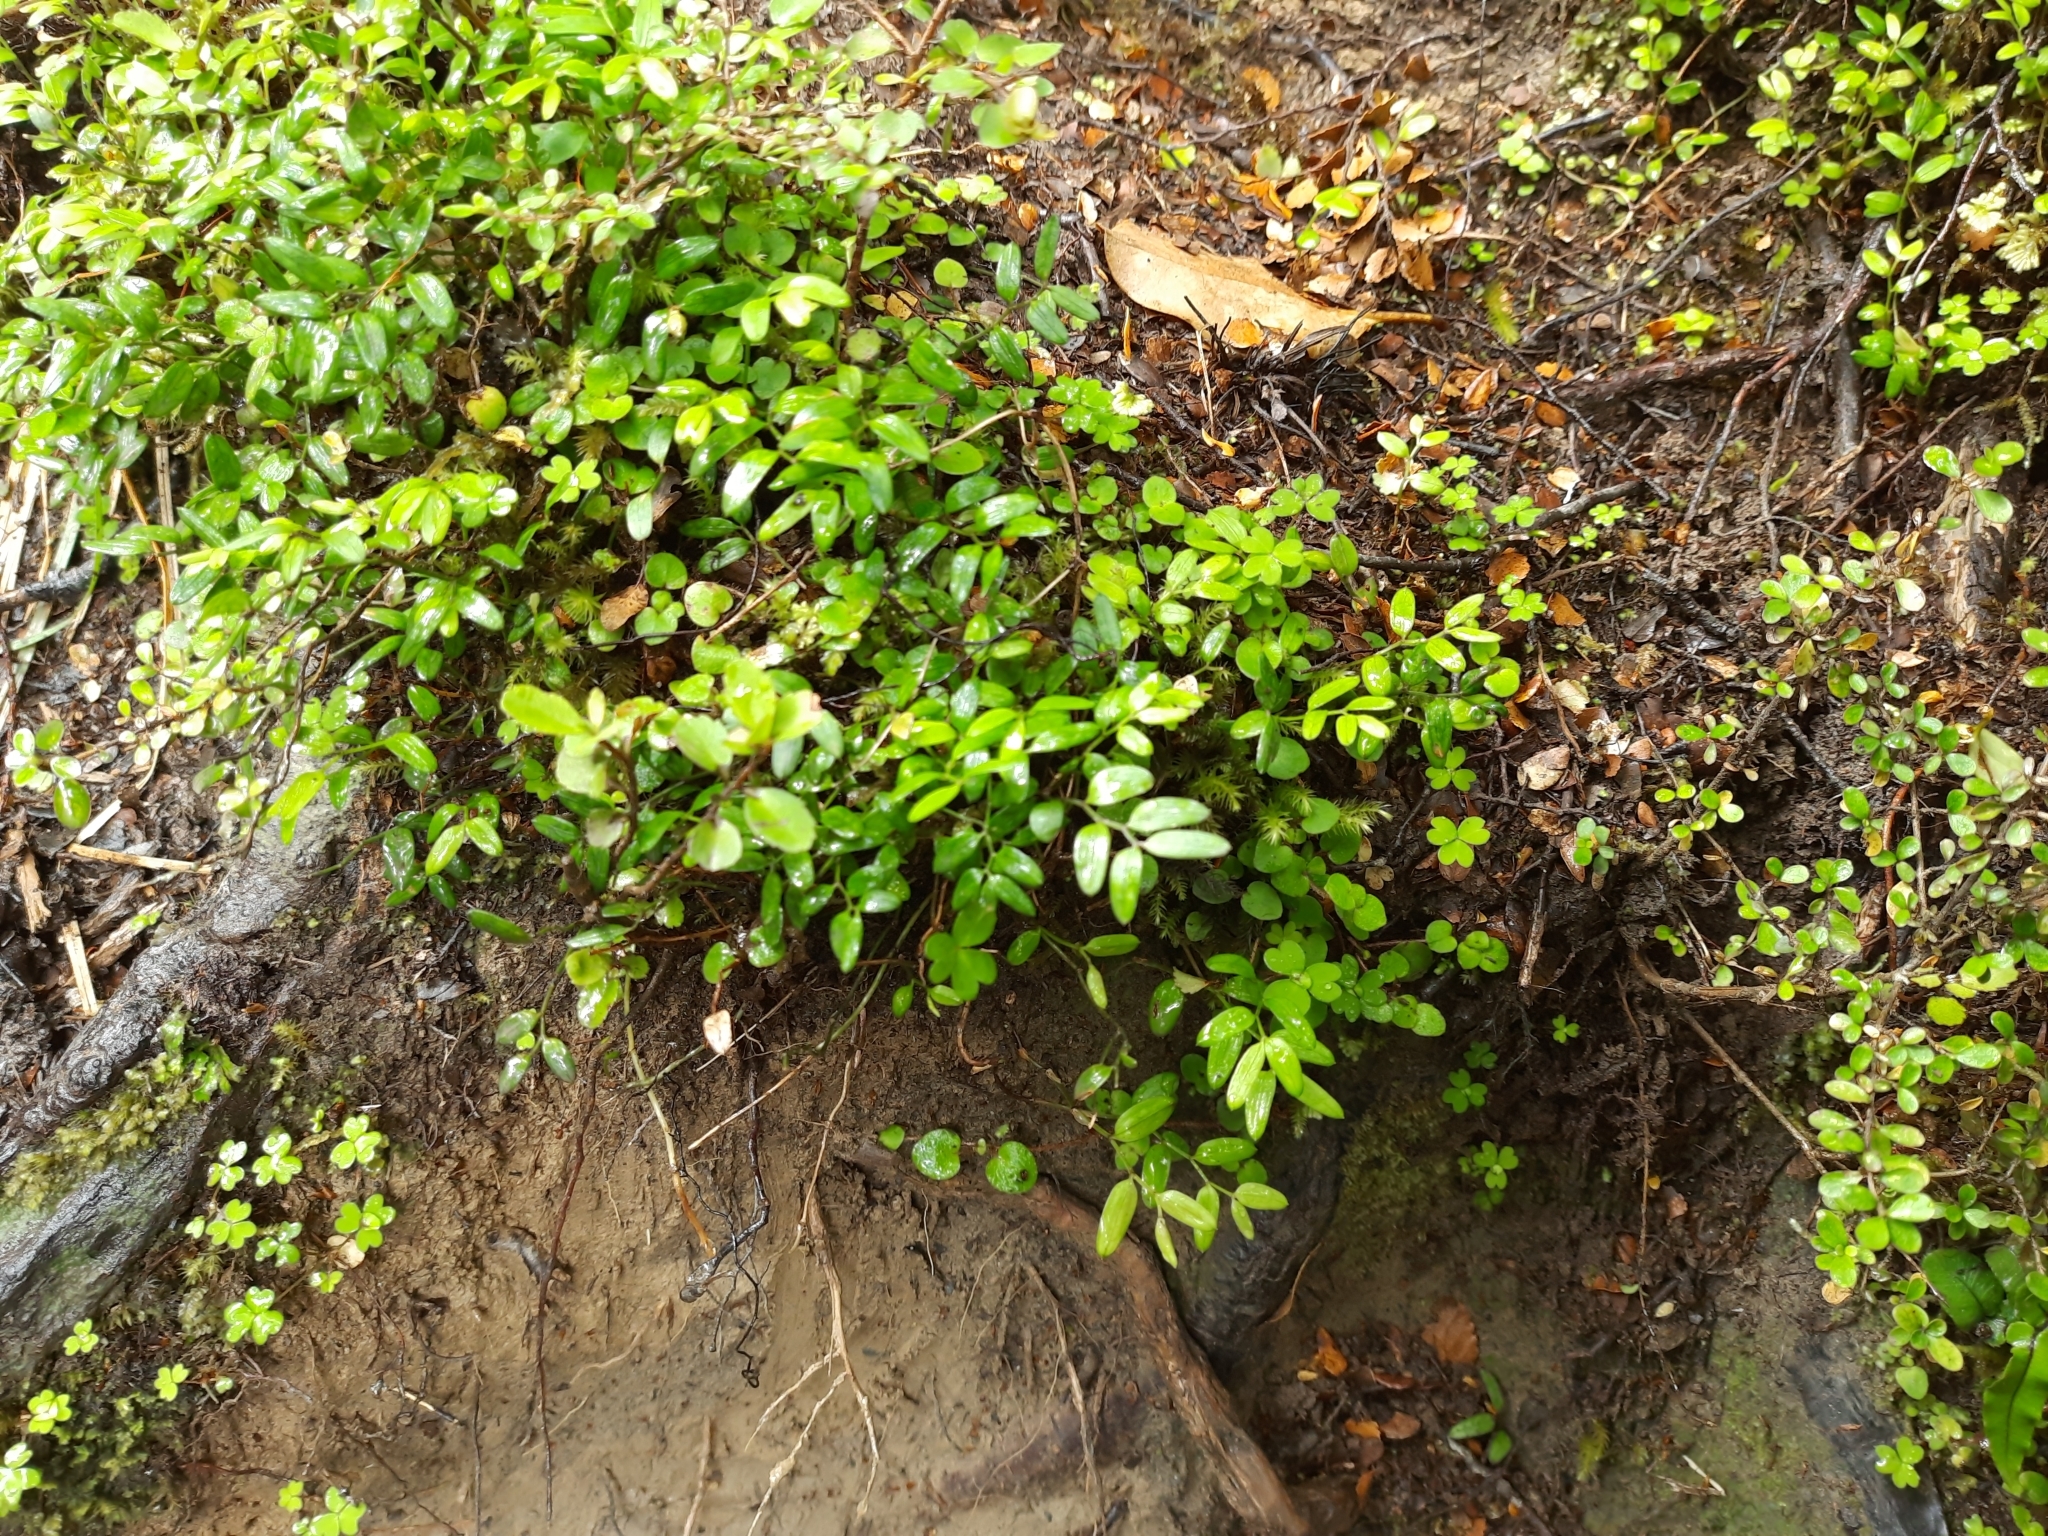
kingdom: Plantae
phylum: Tracheophyta
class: Liliopsida
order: Liliales
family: Alstroemeriaceae
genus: Luzuriaga
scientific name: Luzuriaga parviflora
